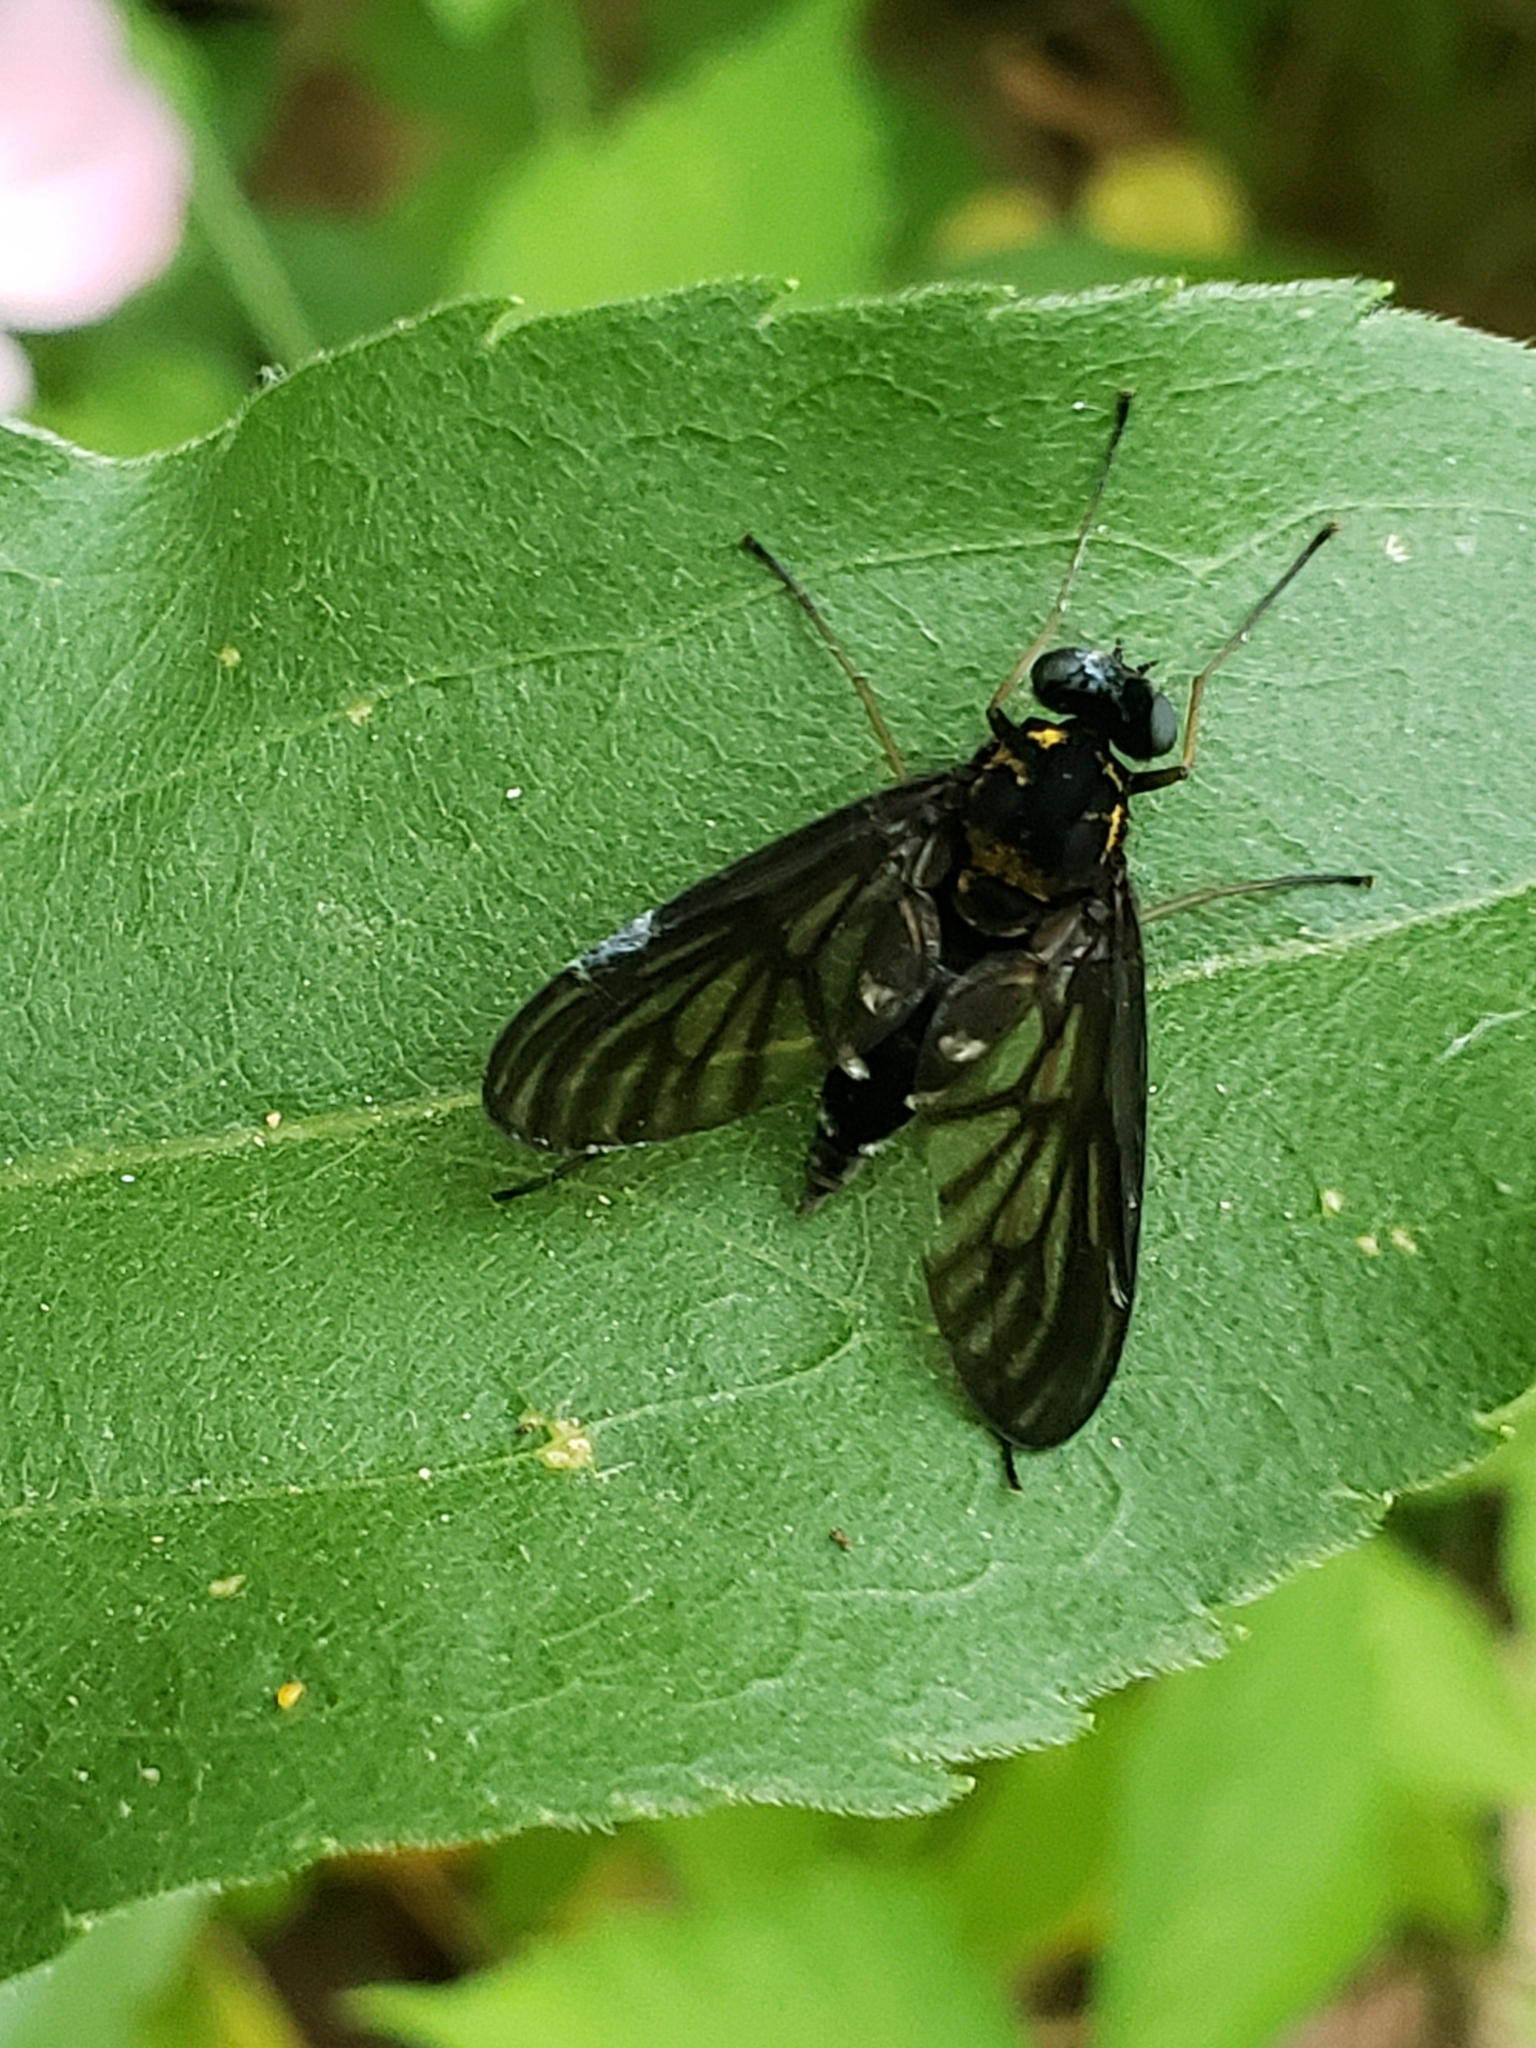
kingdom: Animalia
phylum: Arthropoda
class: Insecta
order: Diptera
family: Rhagionidae
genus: Chrysopilus
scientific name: Chrysopilus thoracicus
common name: Golden-backed snipe fly
